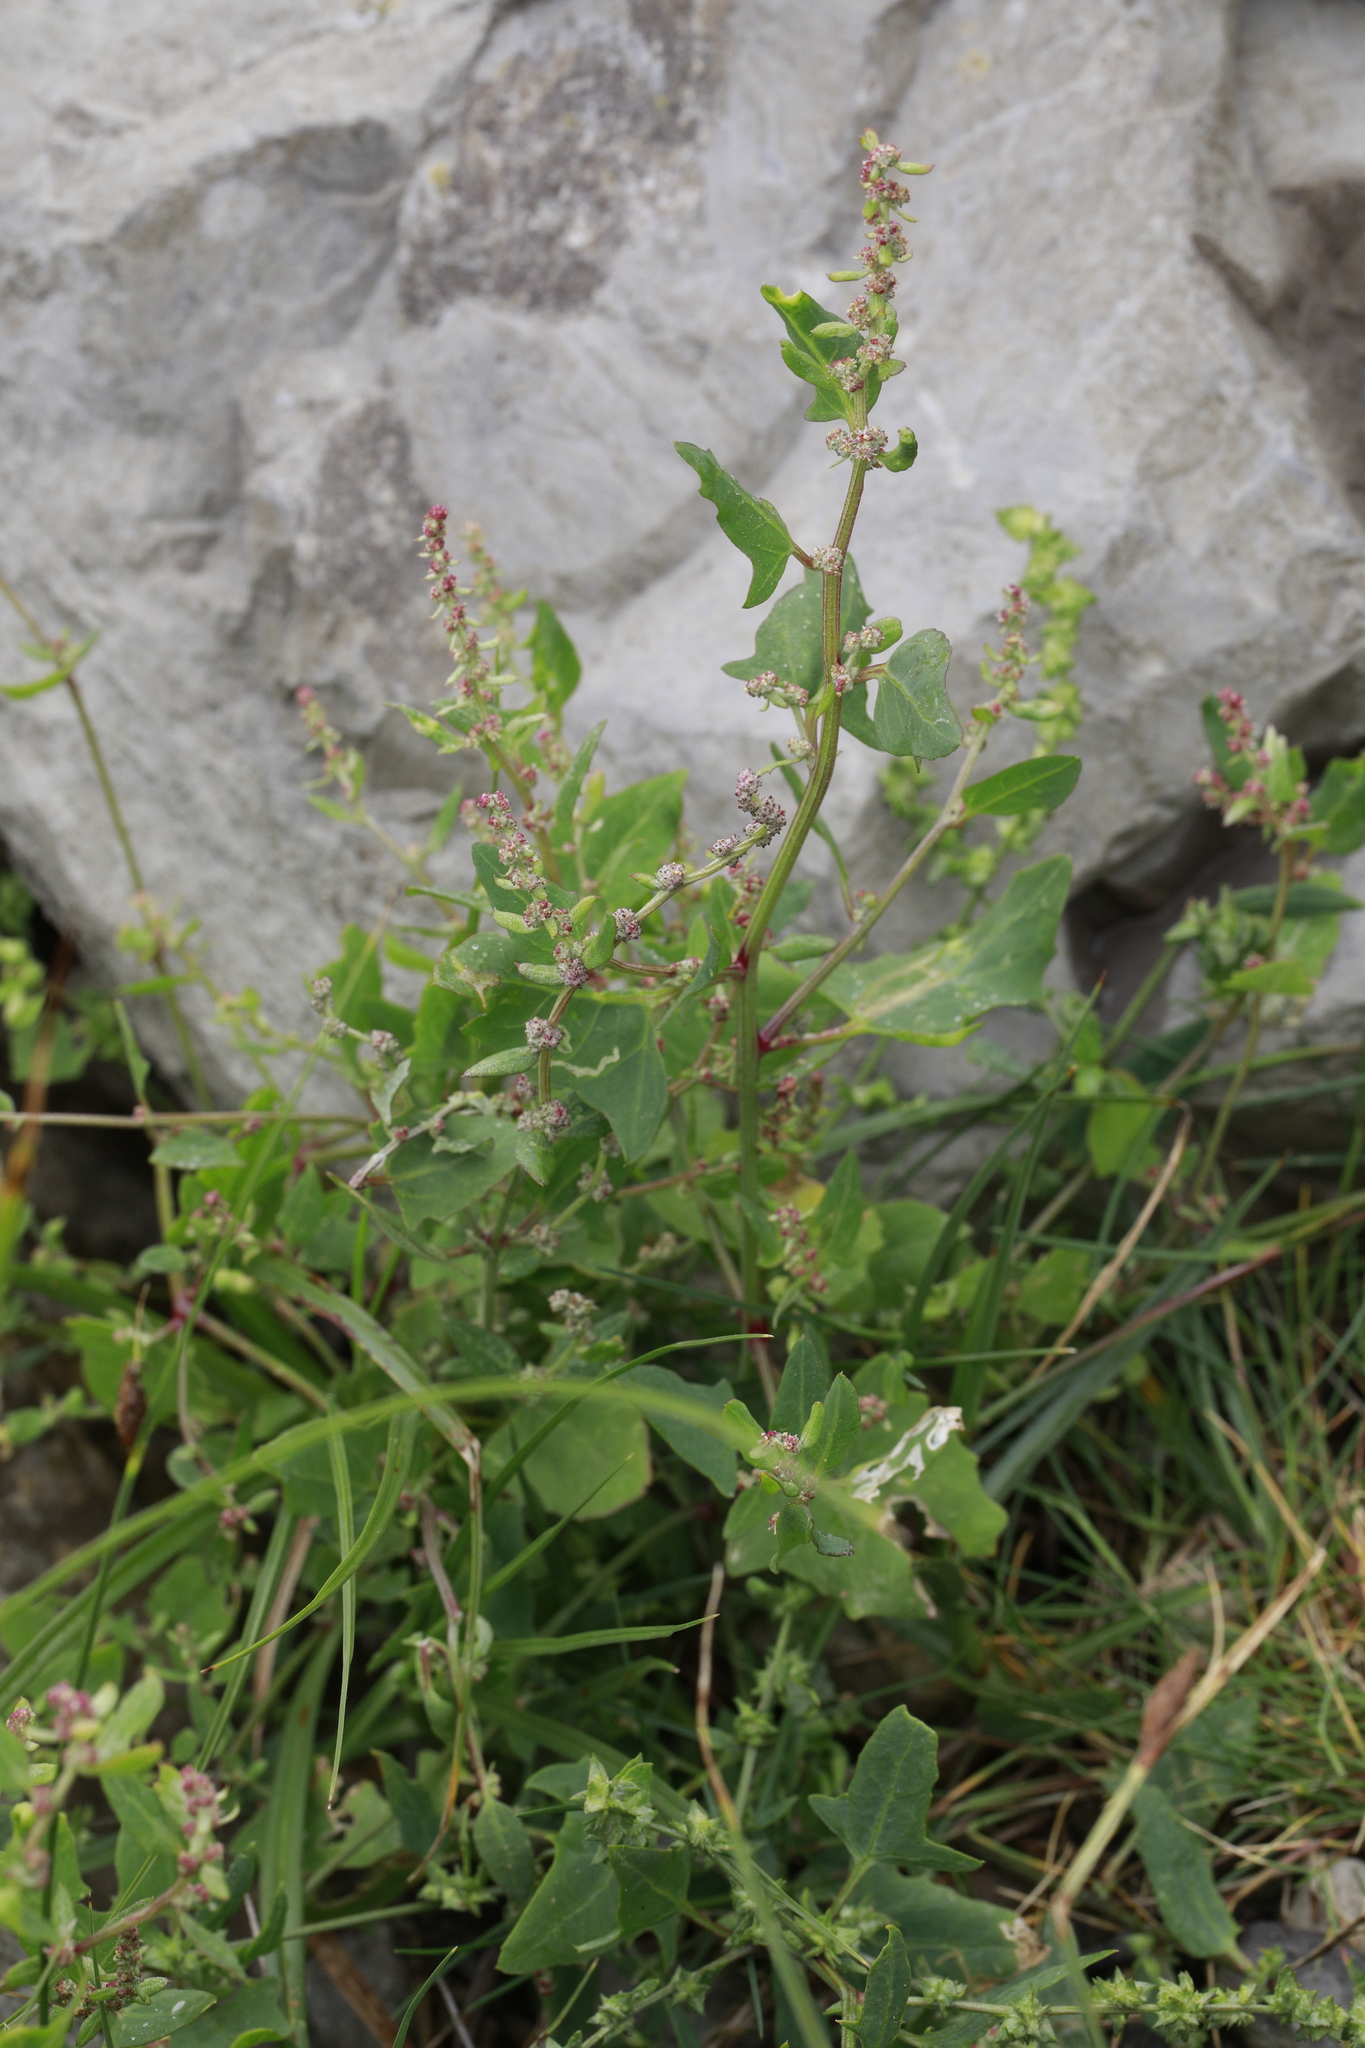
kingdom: Plantae
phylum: Tracheophyta
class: Magnoliopsida
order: Caryophyllales
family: Amaranthaceae
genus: Atriplex
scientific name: Atriplex prostrata
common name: Spear-leaved orache
